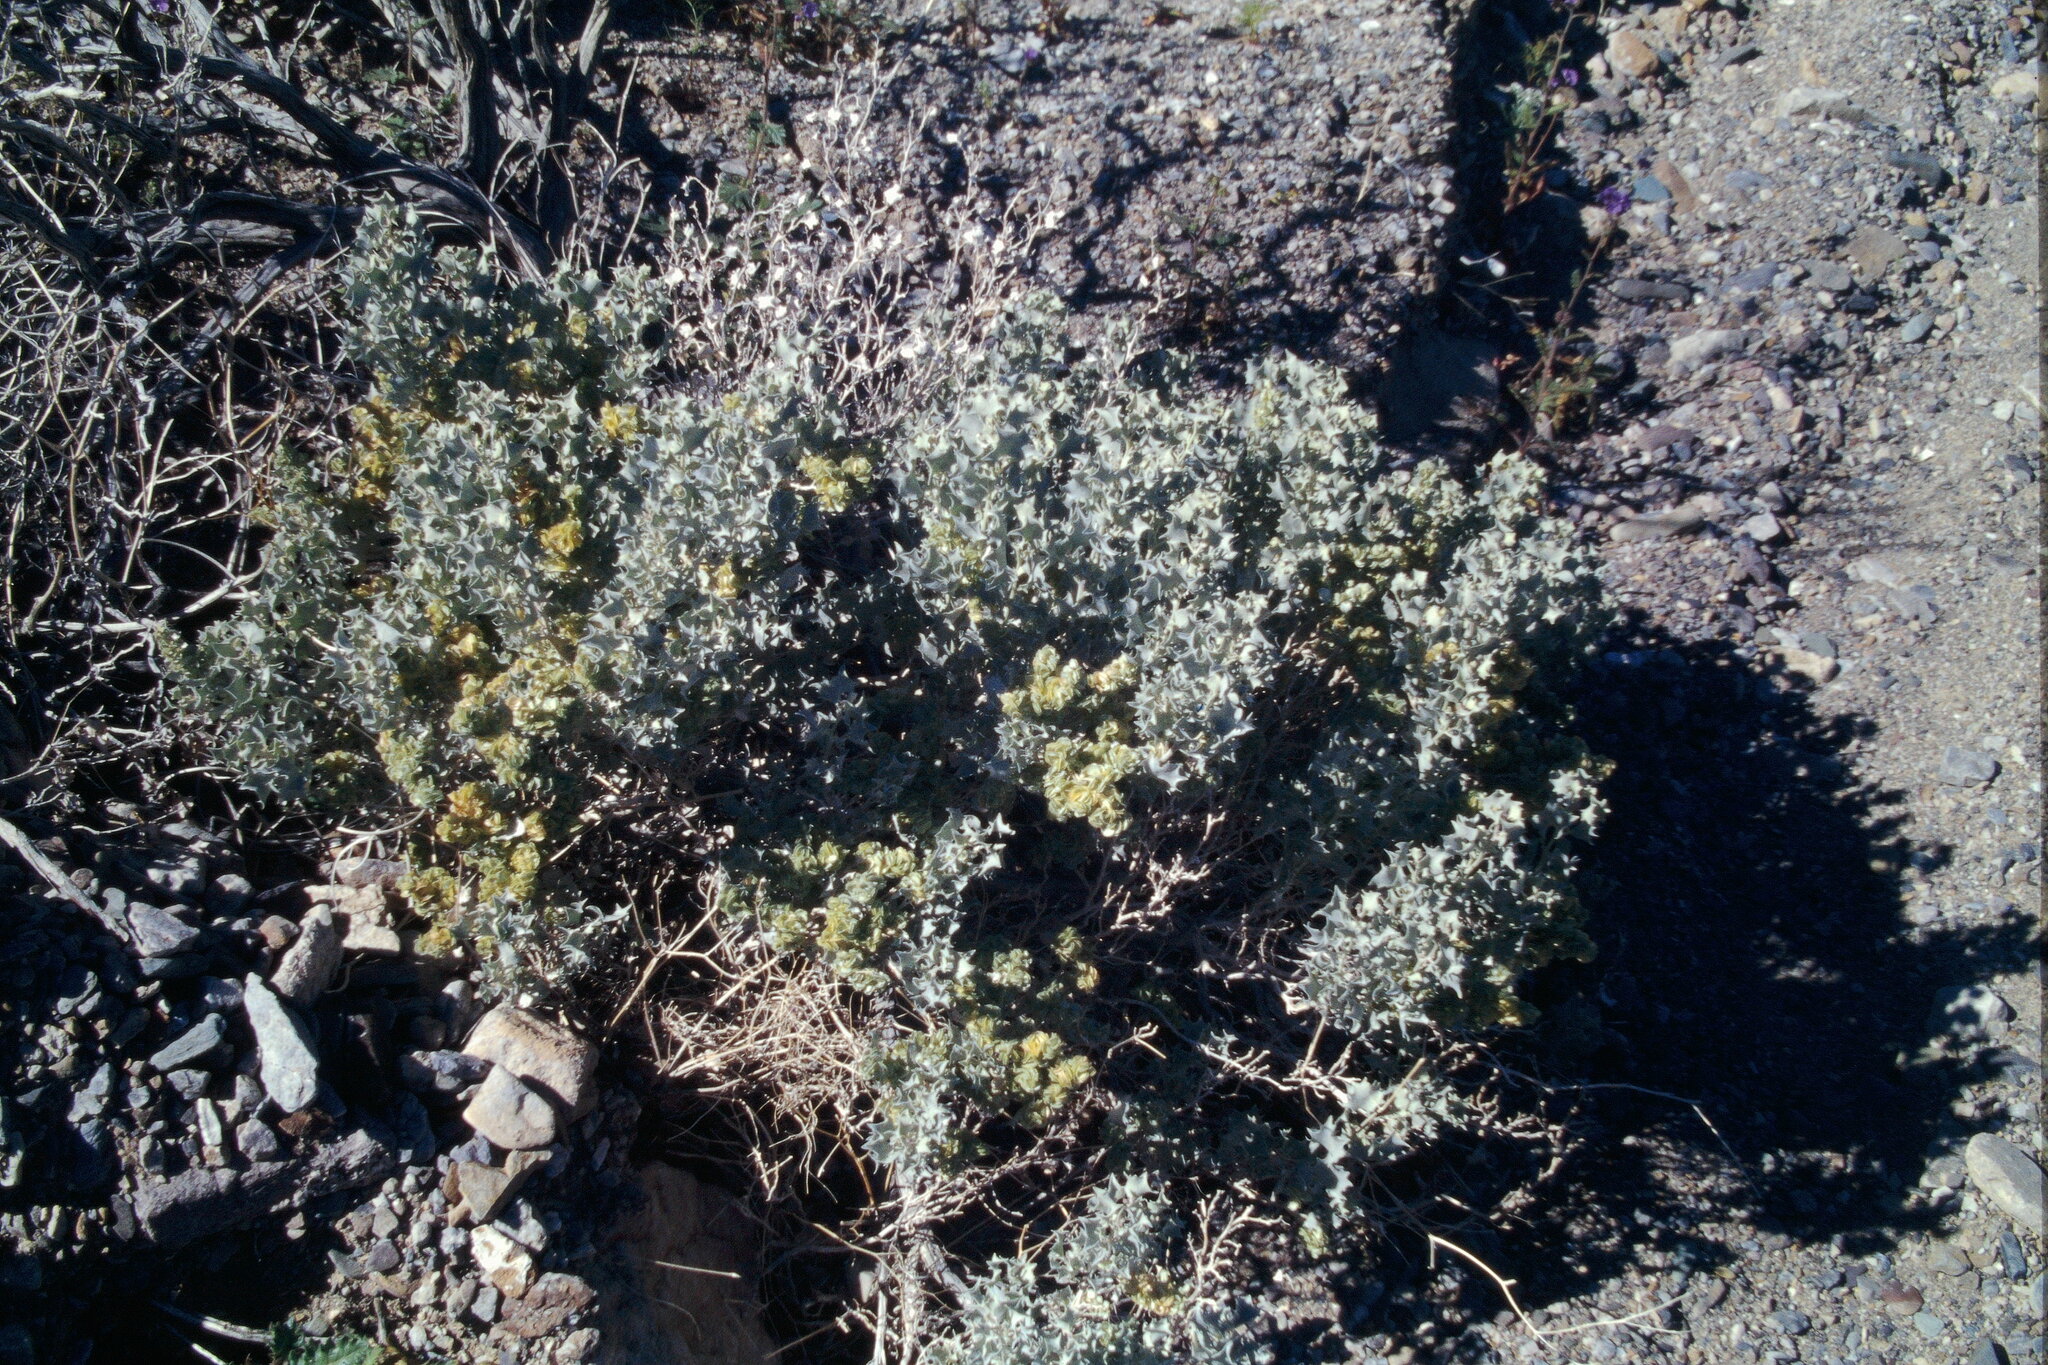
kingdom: Plantae
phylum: Tracheophyta
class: Magnoliopsida
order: Caryophyllales
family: Amaranthaceae
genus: Atriplex
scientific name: Atriplex hymenelytra
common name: Desert-holly
